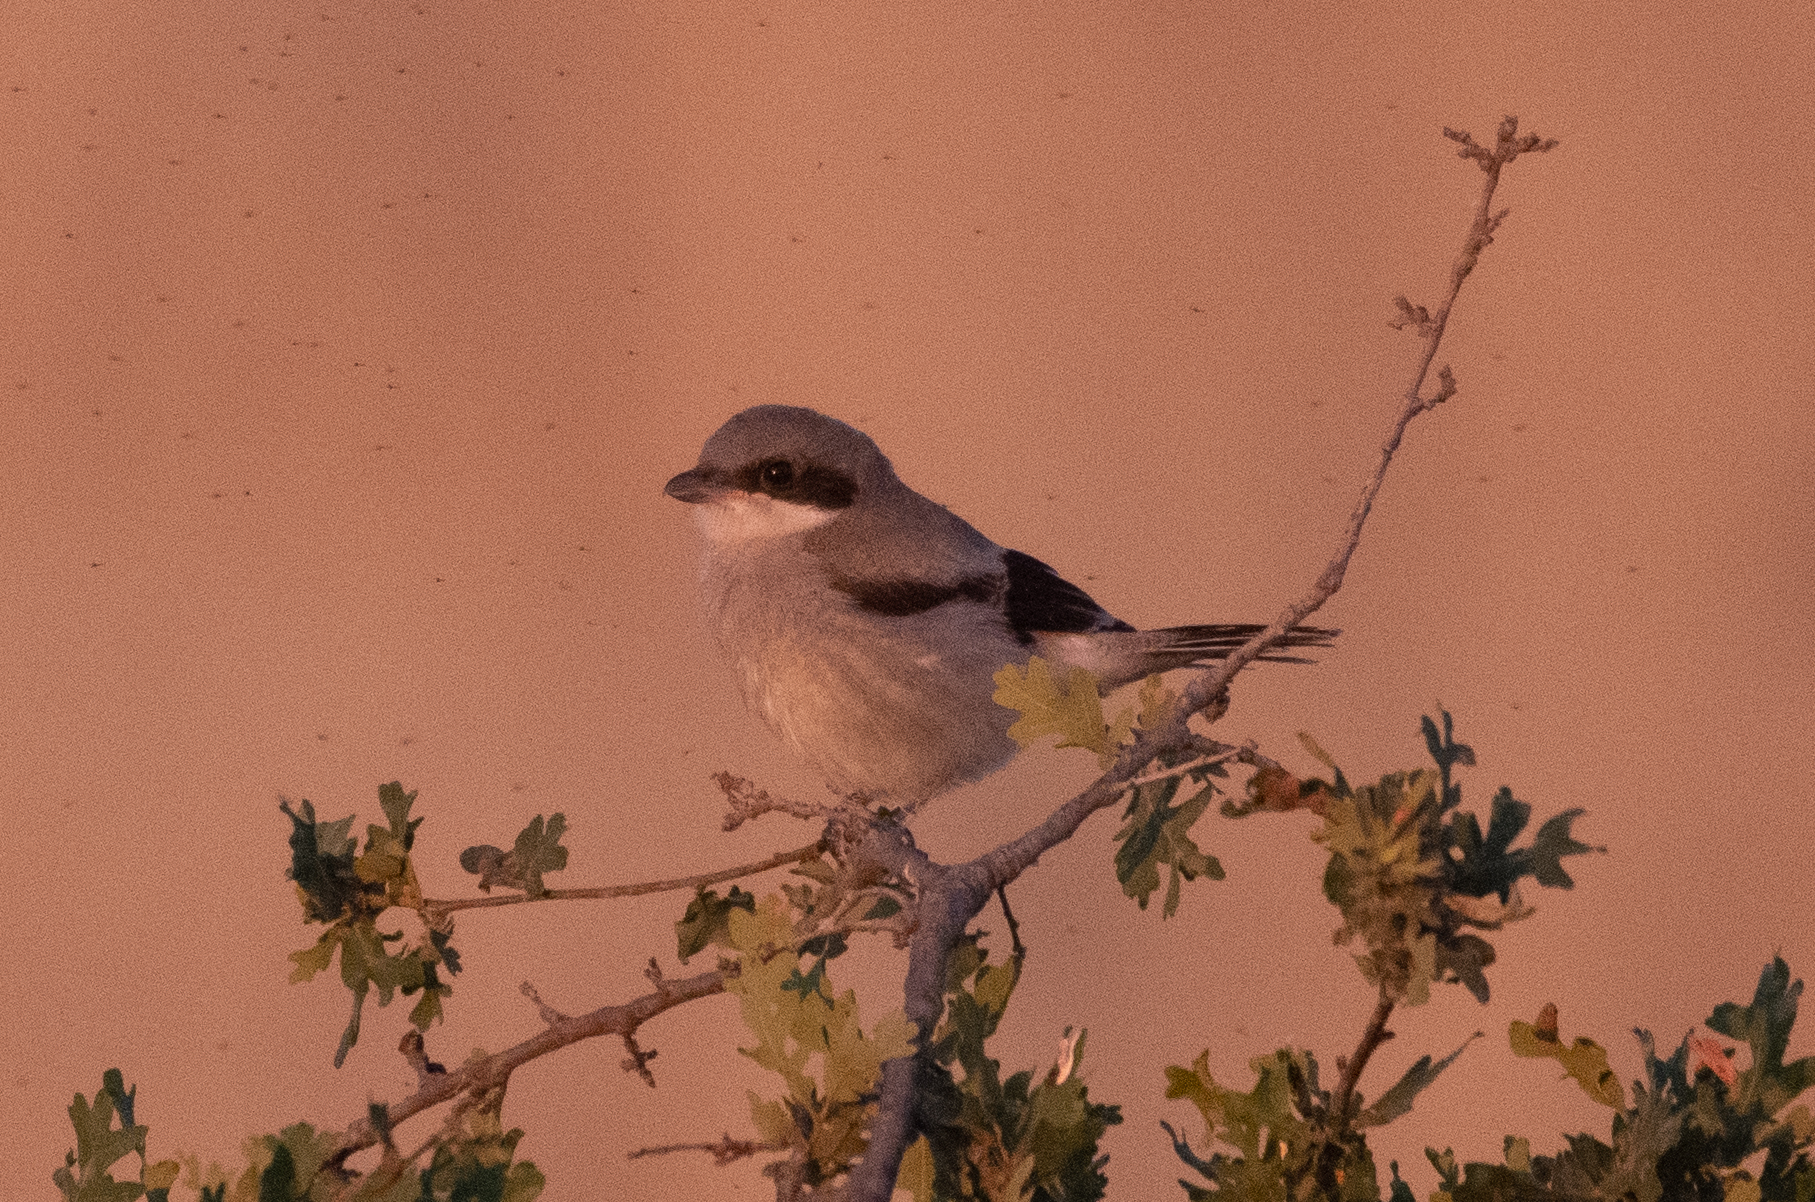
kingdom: Animalia
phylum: Chordata
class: Aves
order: Passeriformes
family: Laniidae
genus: Lanius
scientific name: Lanius ludovicianus
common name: Loggerhead shrike
